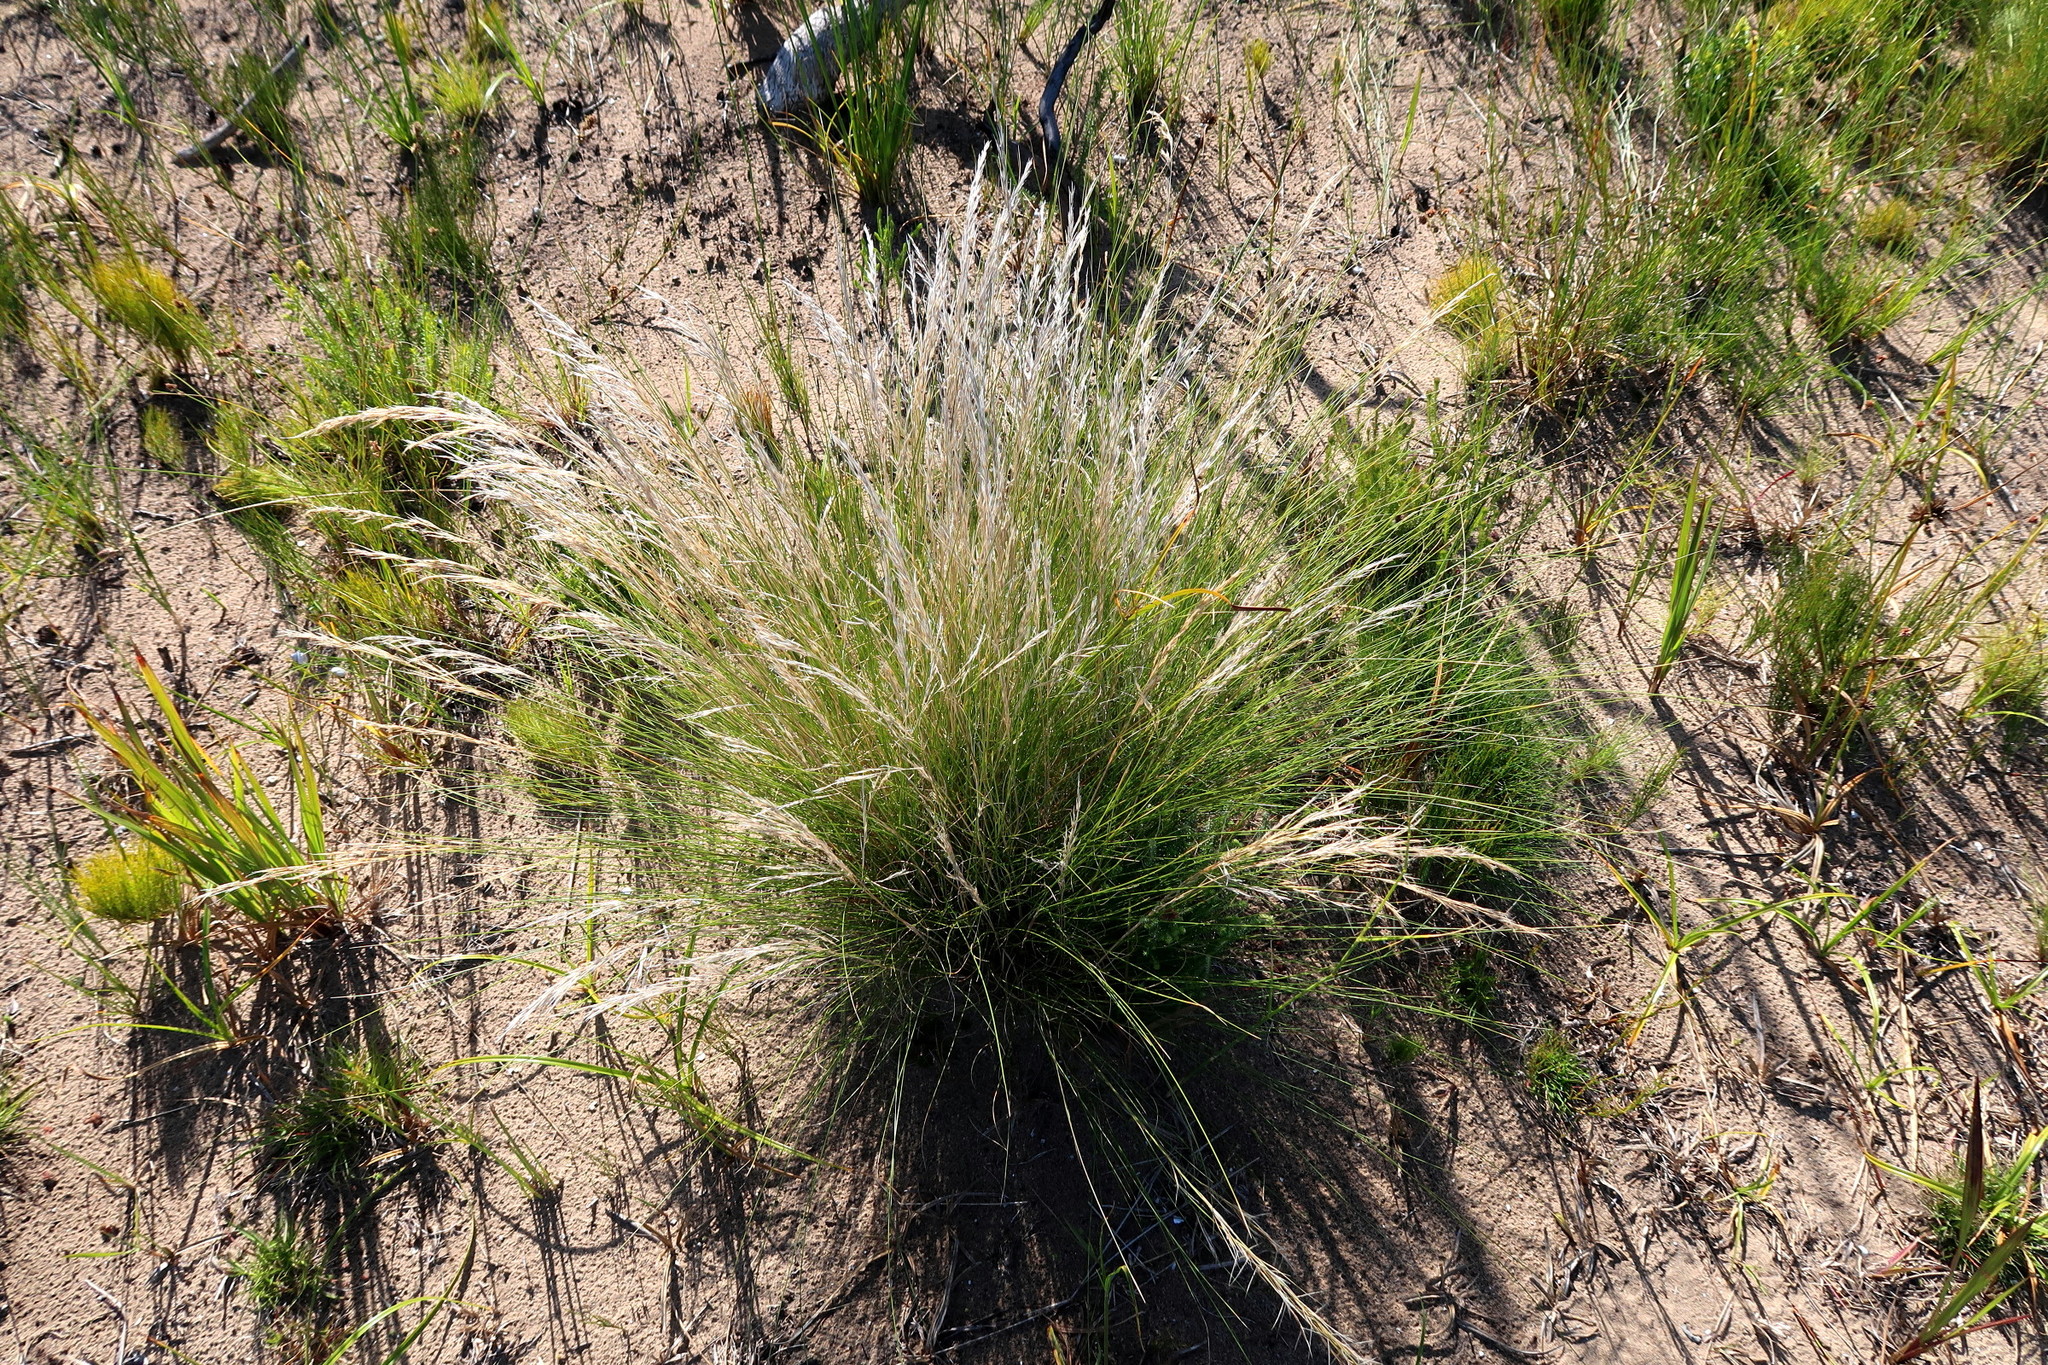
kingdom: Plantae
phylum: Tracheophyta
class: Liliopsida
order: Poales
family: Poaceae
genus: Stipagrostis
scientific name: Stipagrostis zeyheri
